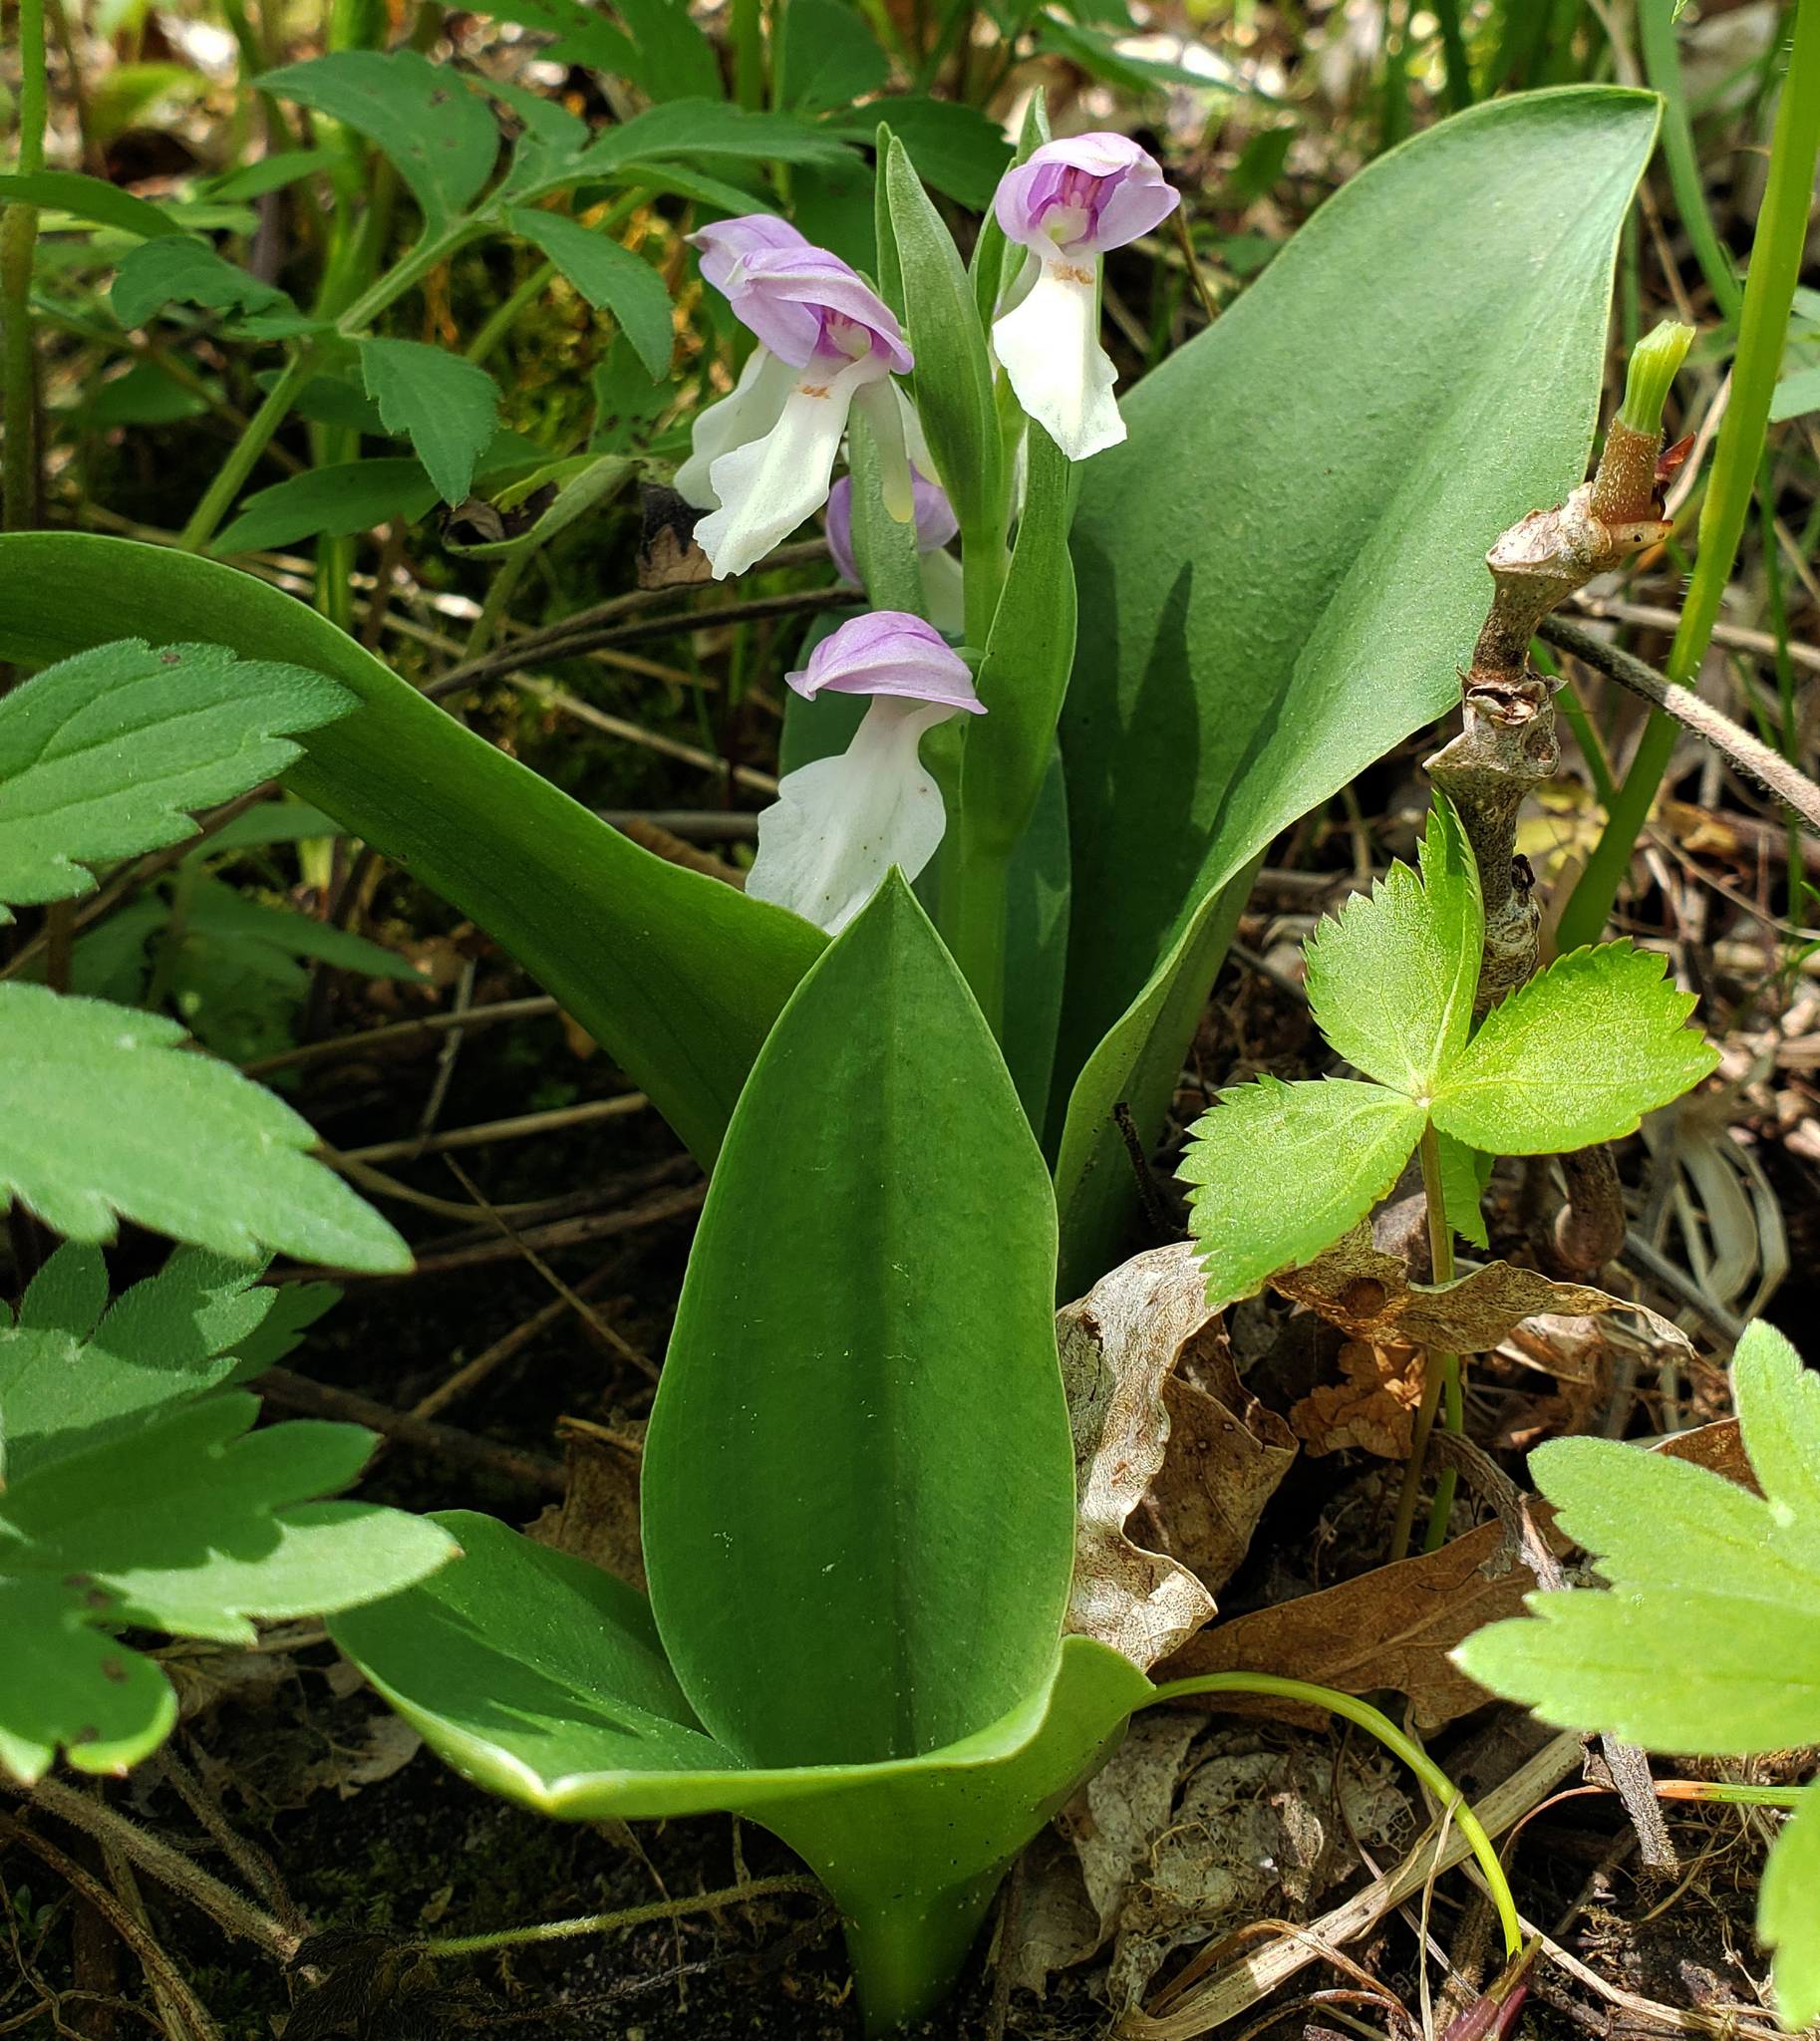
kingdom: Plantae
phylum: Tracheophyta
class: Liliopsida
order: Asparagales
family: Orchidaceae
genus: Galearis
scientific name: Galearis spectabilis
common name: Purple-hooded orchis
